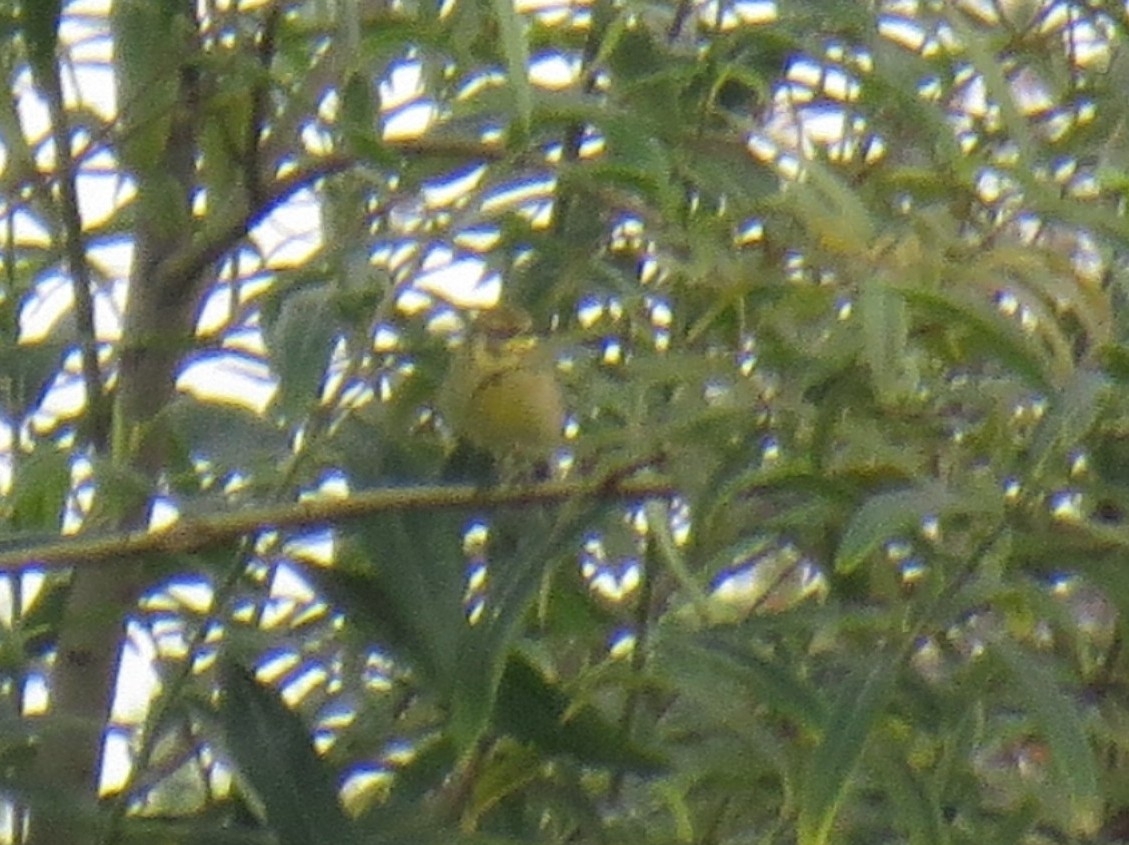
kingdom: Animalia
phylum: Chordata
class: Aves
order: Passeriformes
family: Motacillidae
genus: Motacilla
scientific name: Motacilla citreola
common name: Citrine wagtail
